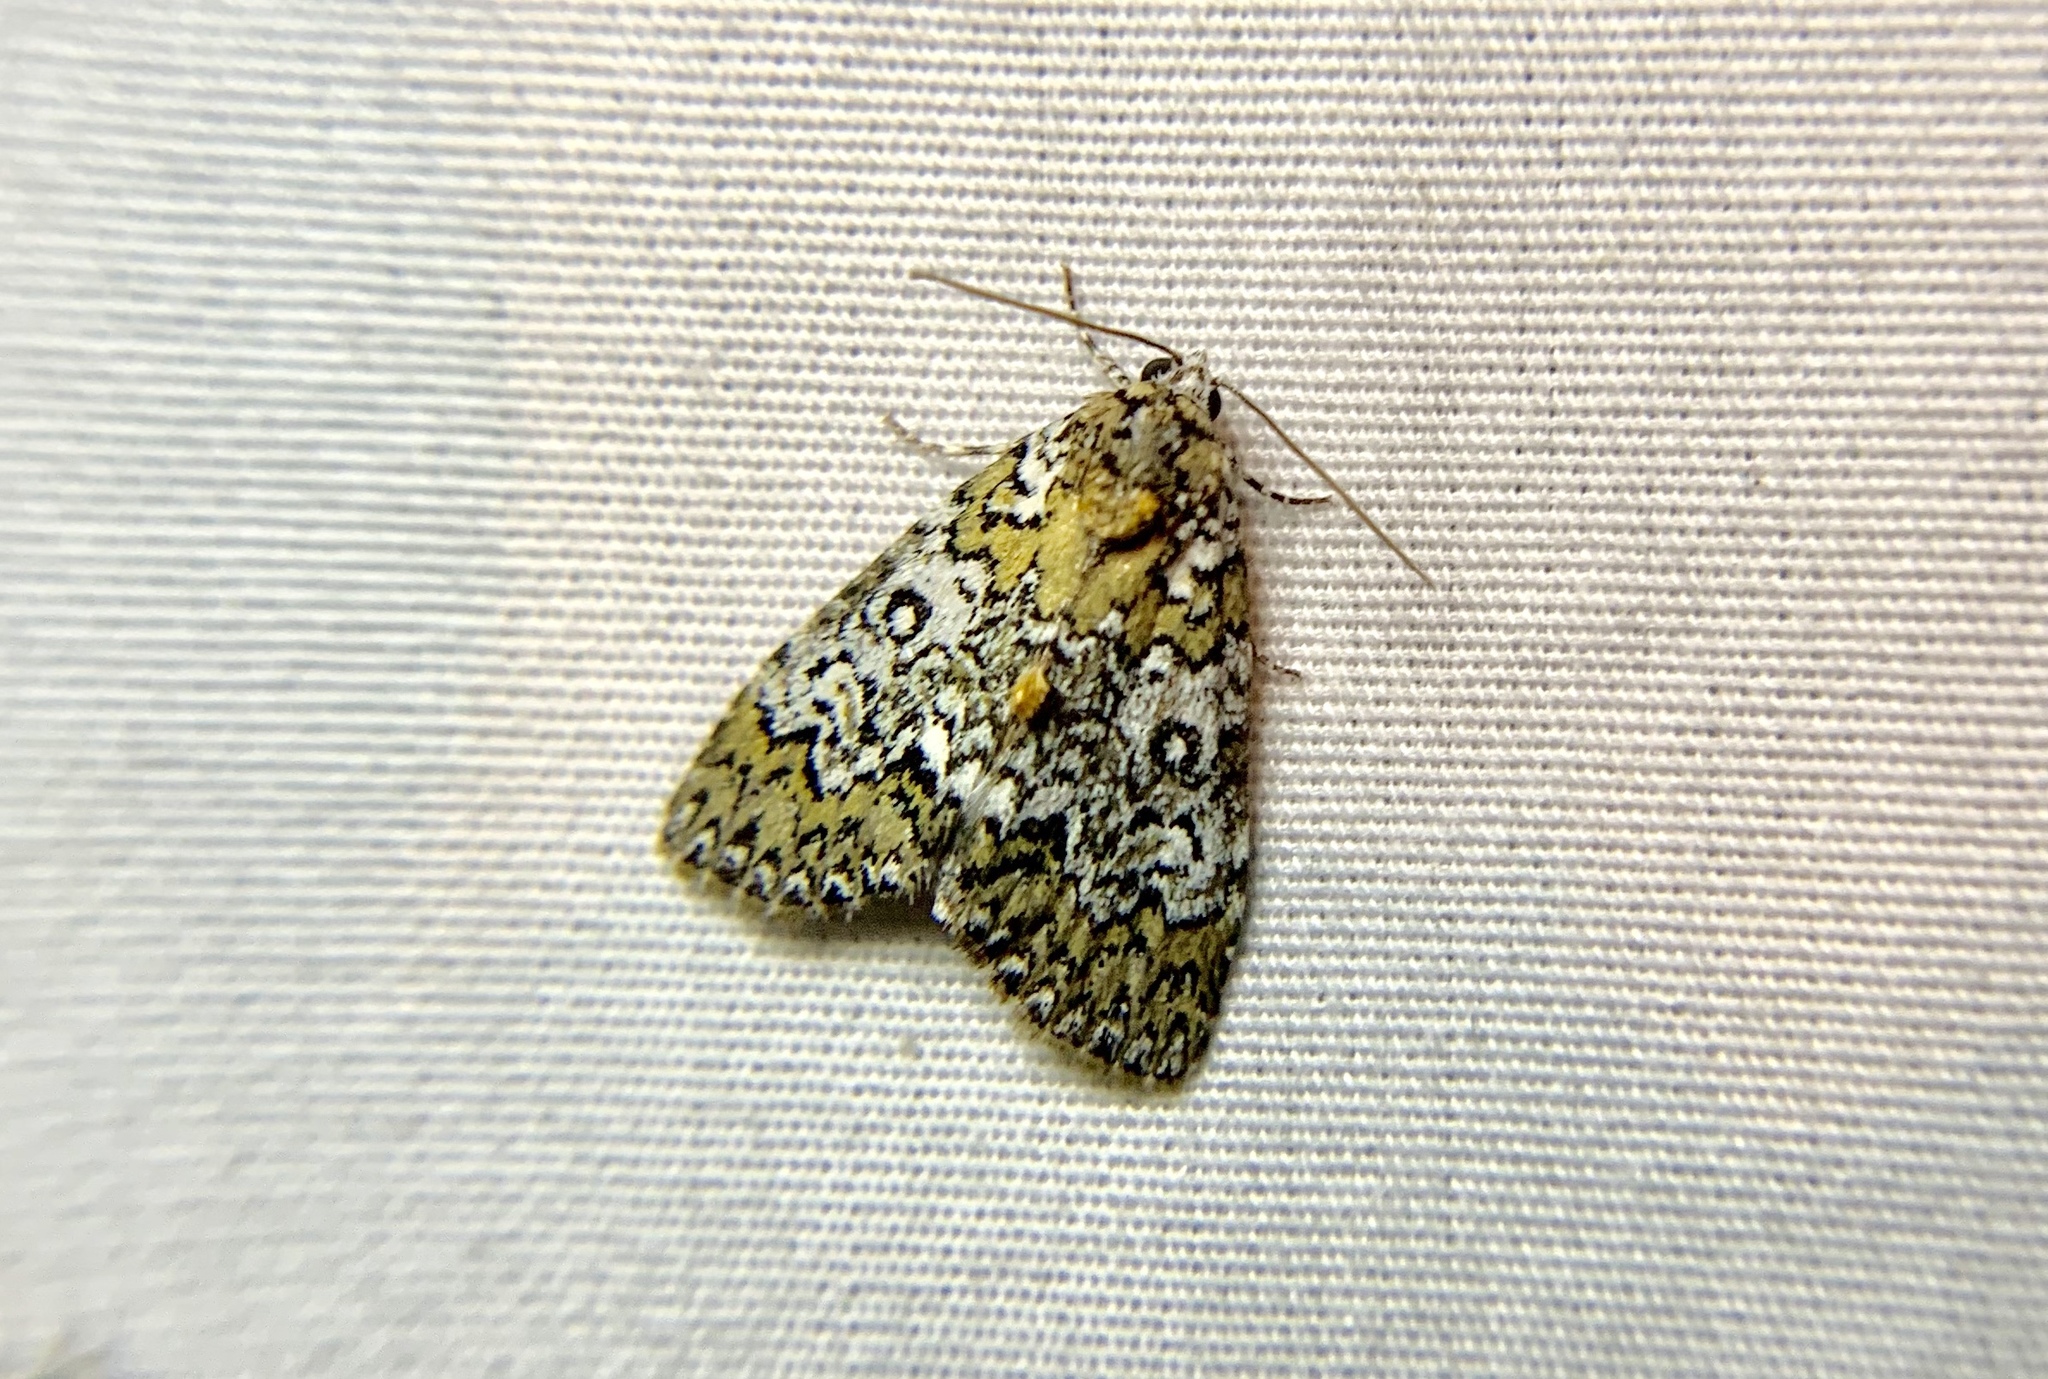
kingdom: Animalia
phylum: Arthropoda
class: Insecta
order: Lepidoptera
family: Noctuidae
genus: Cerma
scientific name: Cerma cora
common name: Bird dropping moth
